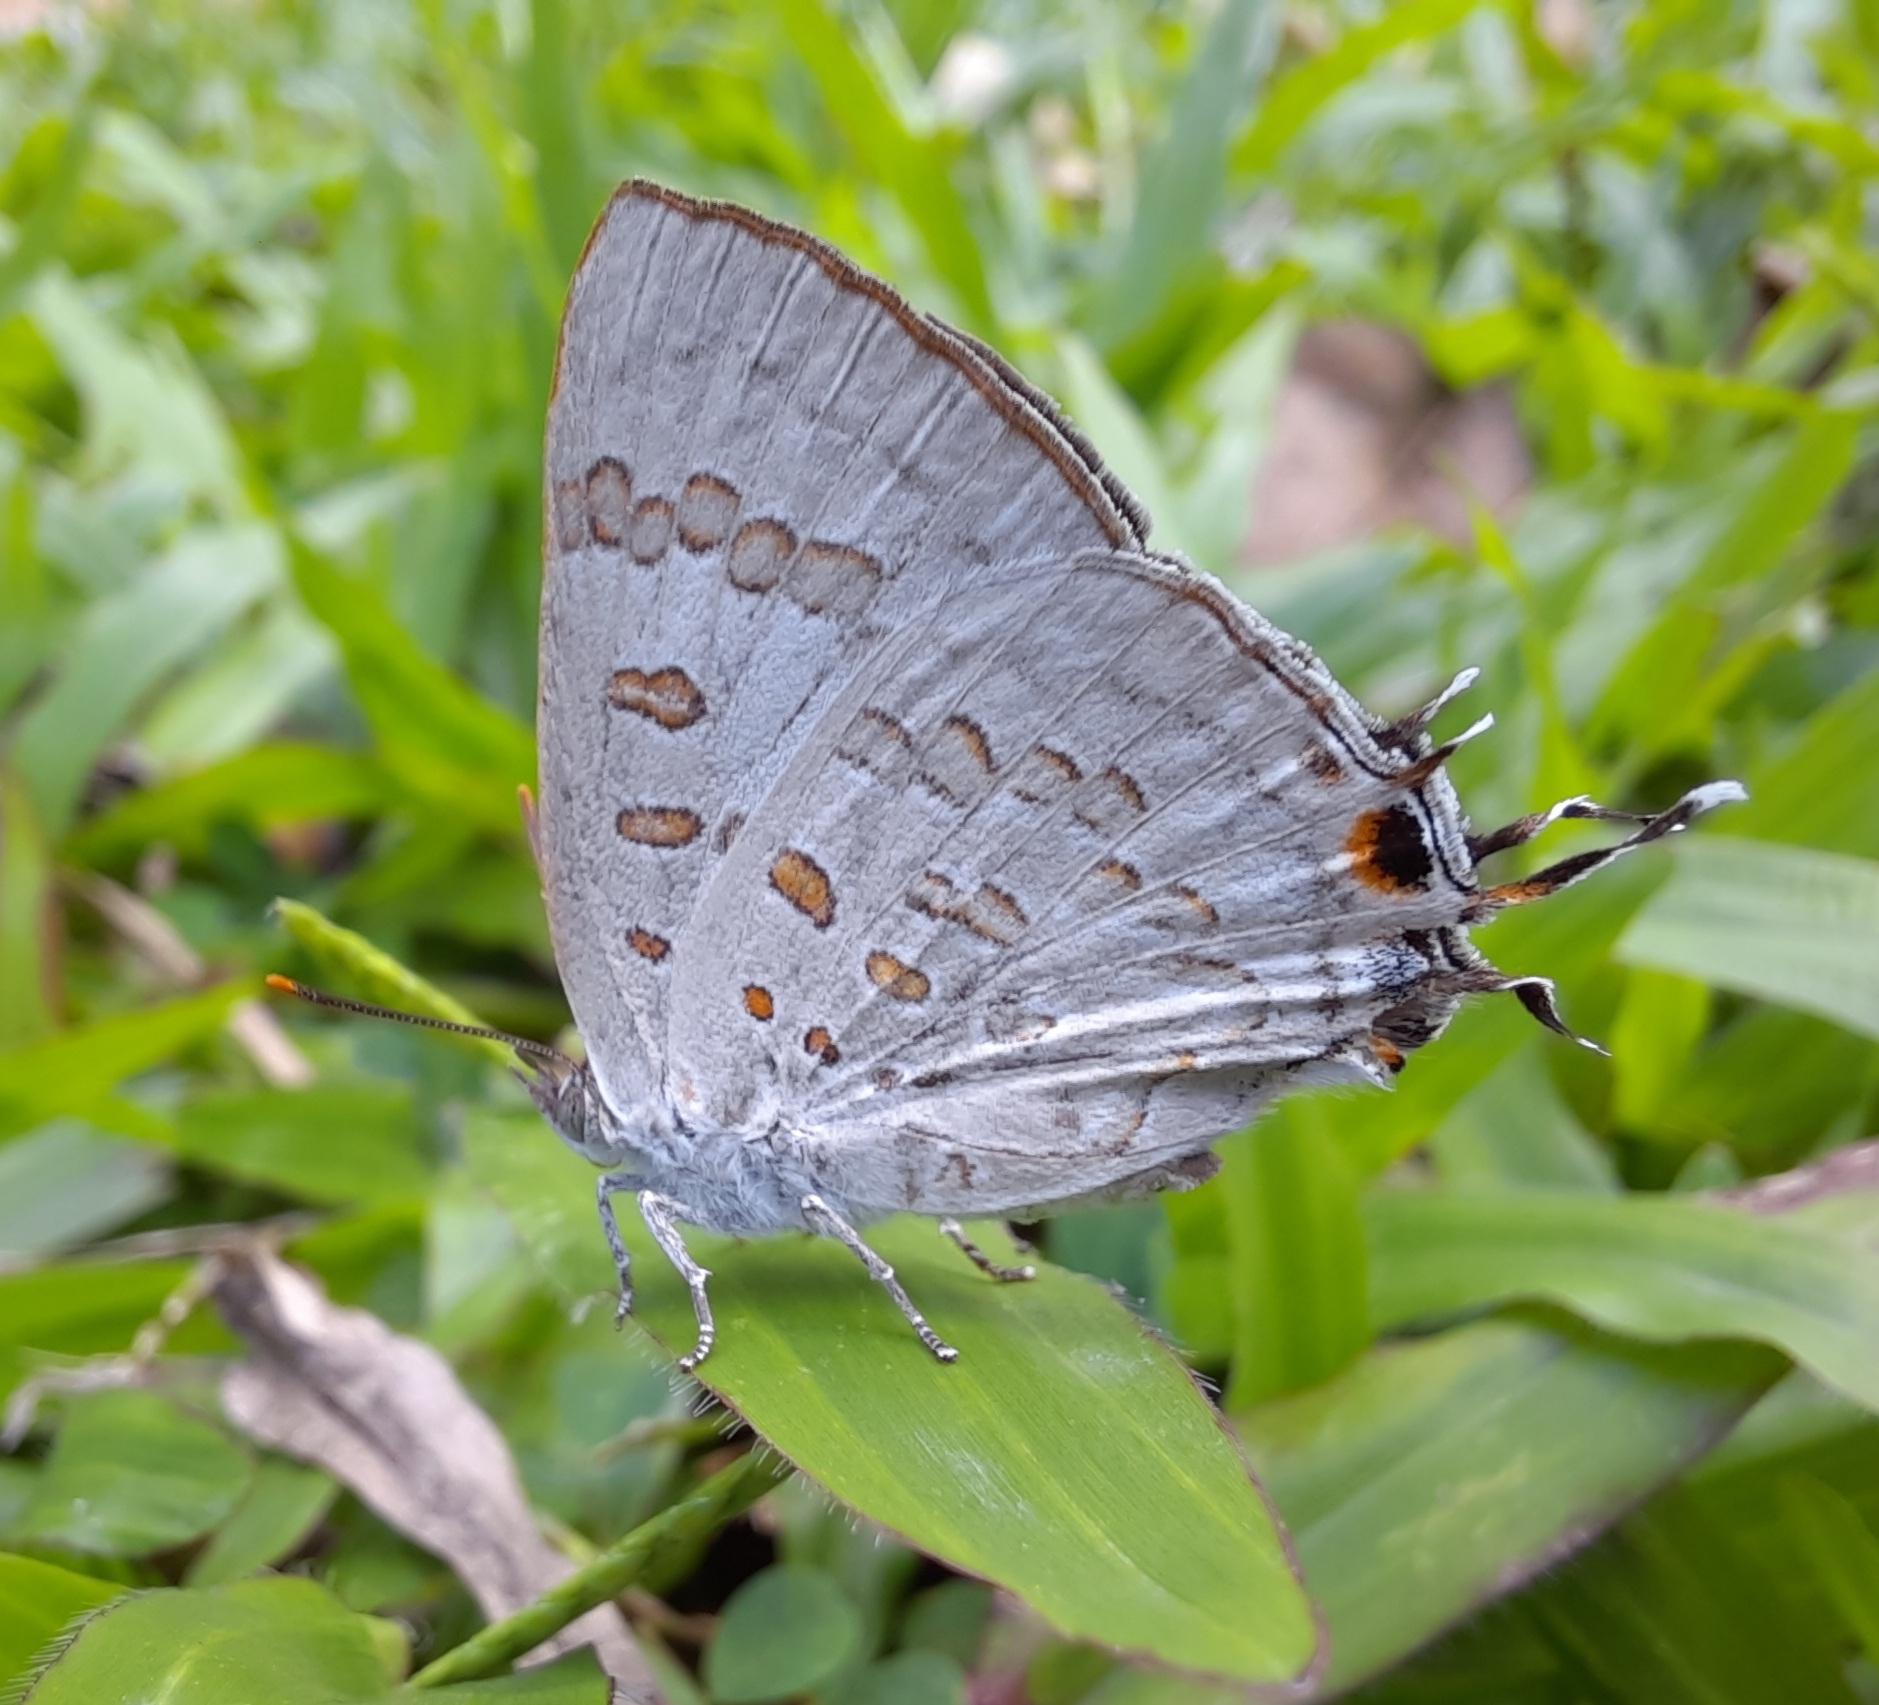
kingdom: Animalia
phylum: Arthropoda
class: Insecta
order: Lepidoptera
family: Lycaenidae
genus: Zesius
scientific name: Zesius chrysomallus
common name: Redspot
